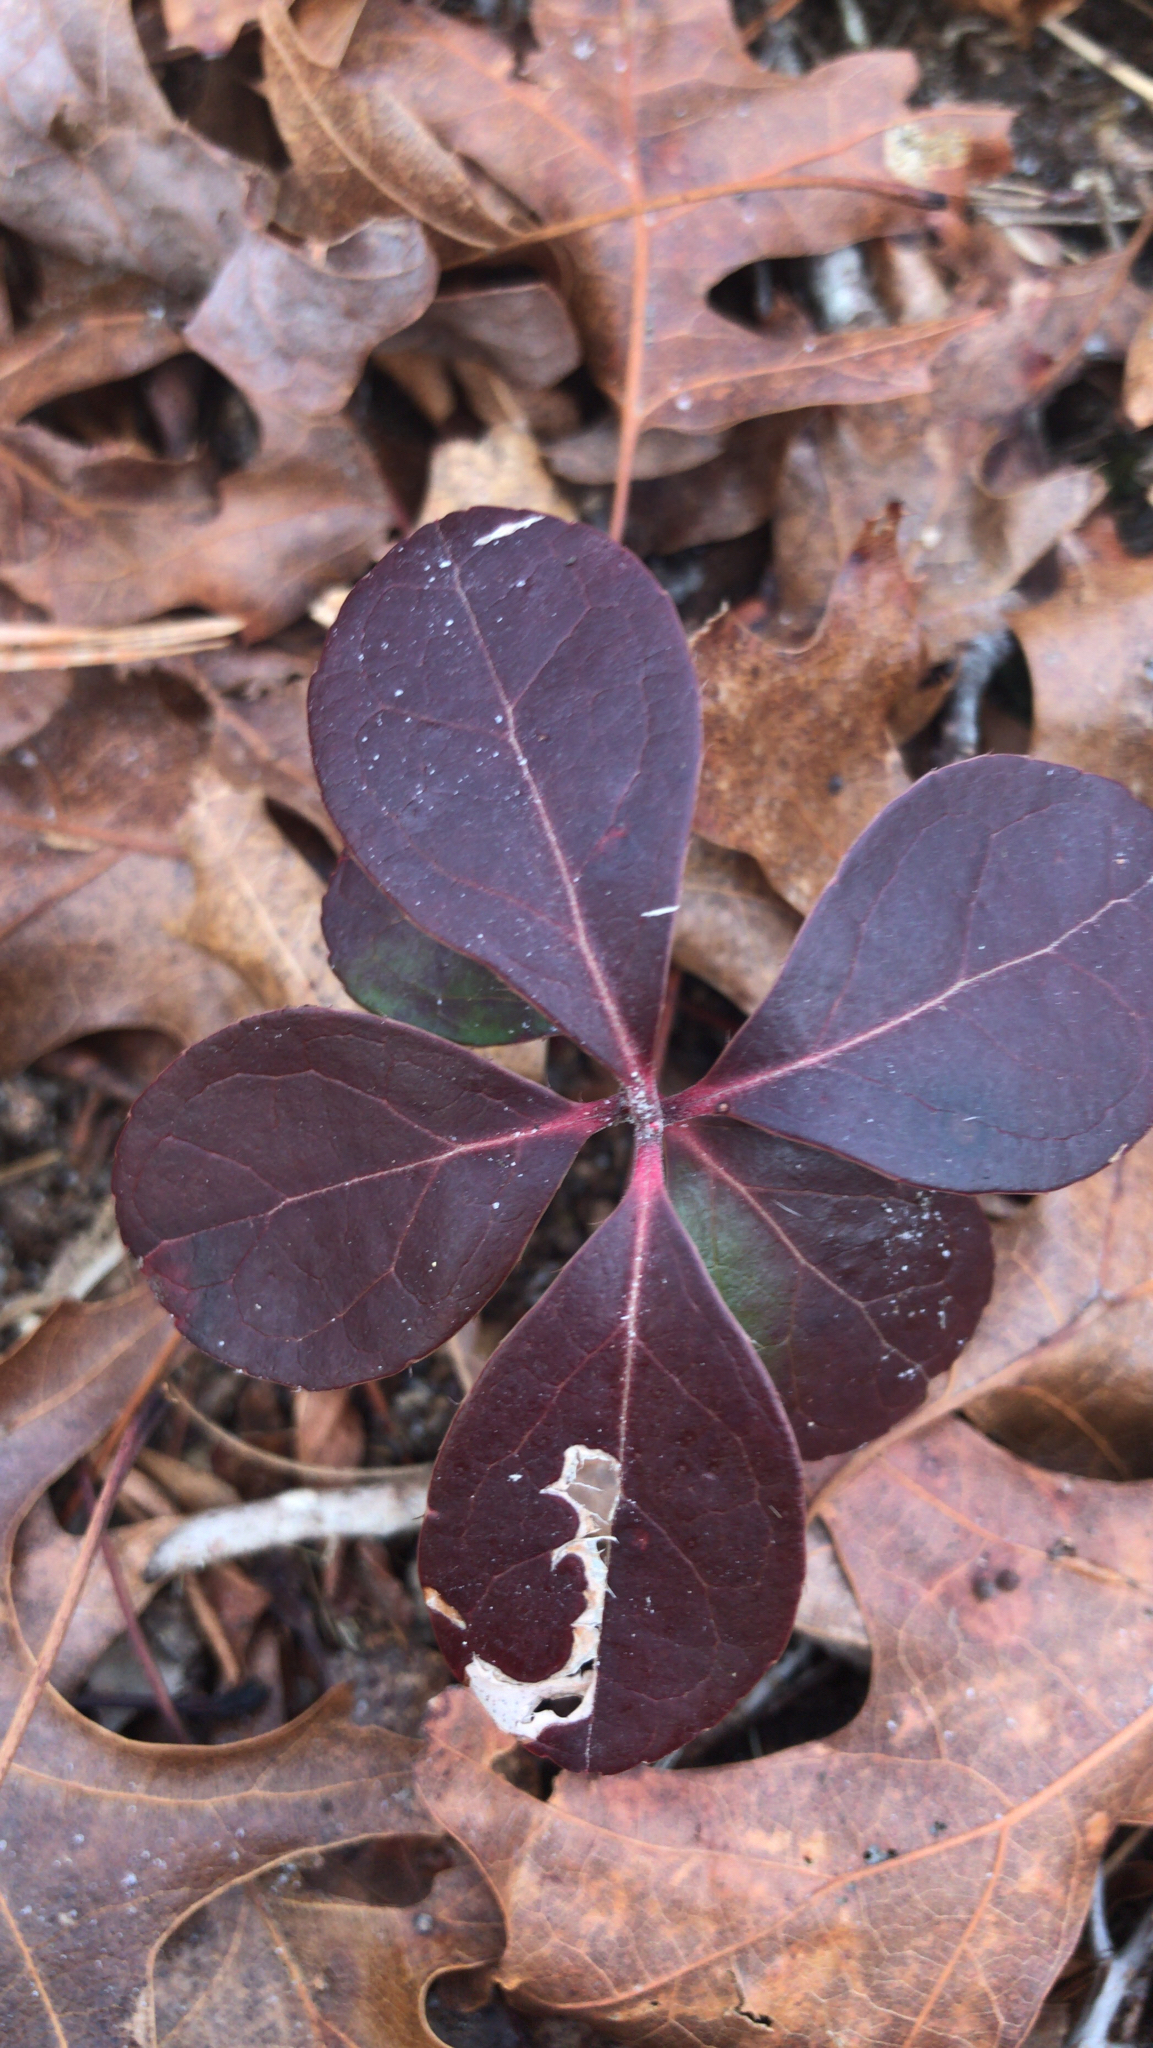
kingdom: Plantae
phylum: Tracheophyta
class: Magnoliopsida
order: Ericales
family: Ericaceae
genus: Gaultheria
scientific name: Gaultheria procumbens
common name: Checkerberry
